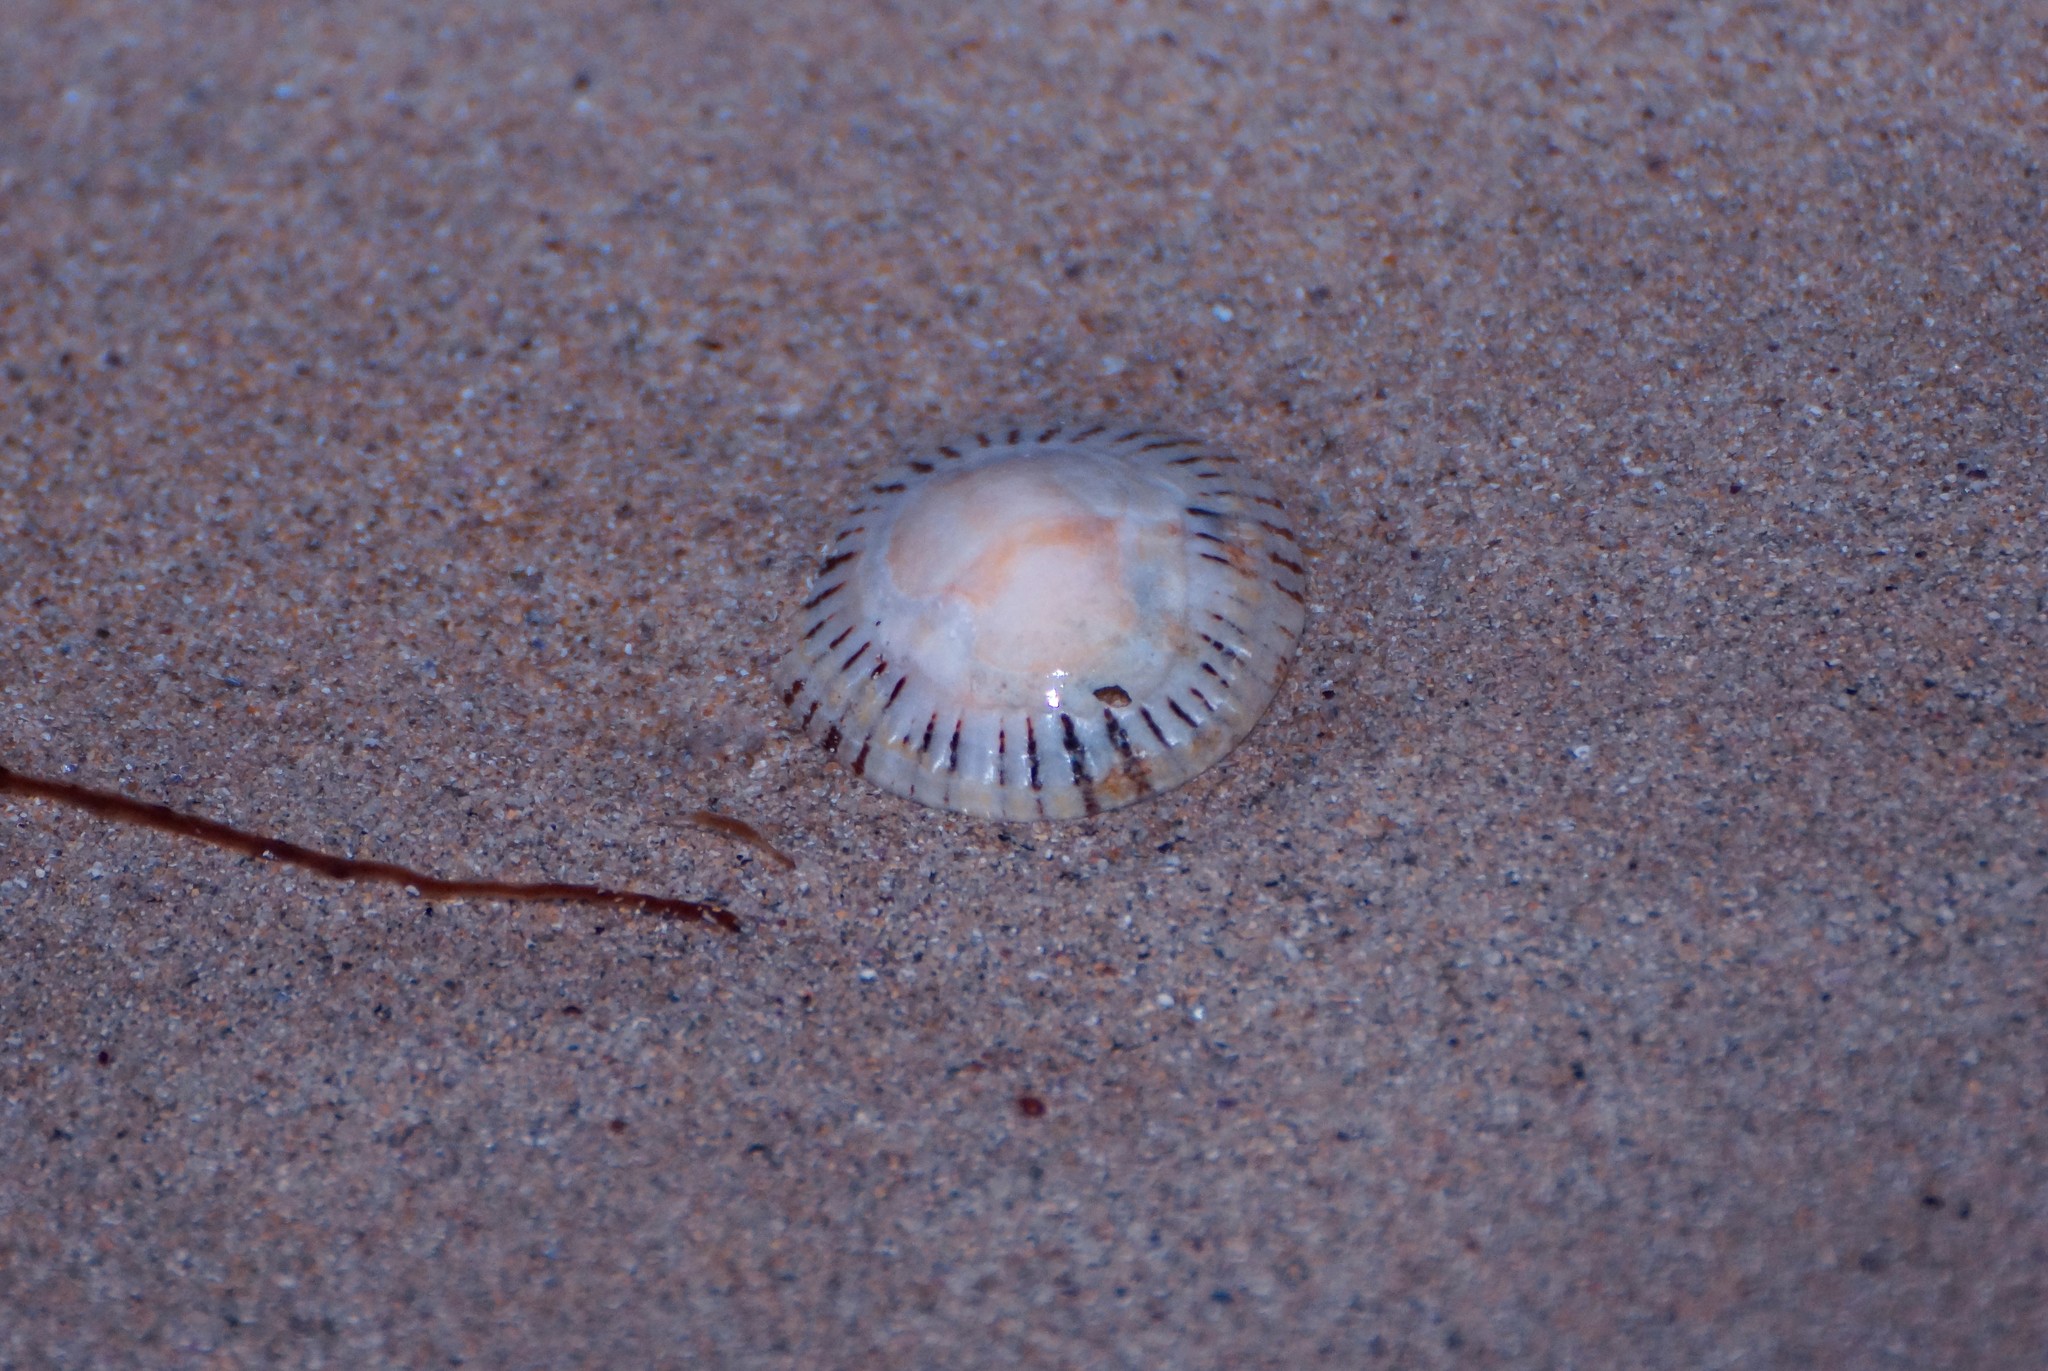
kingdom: Animalia
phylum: Mollusca
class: Gastropoda
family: Nacellidae
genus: Cellana
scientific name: Cellana tramoserica
